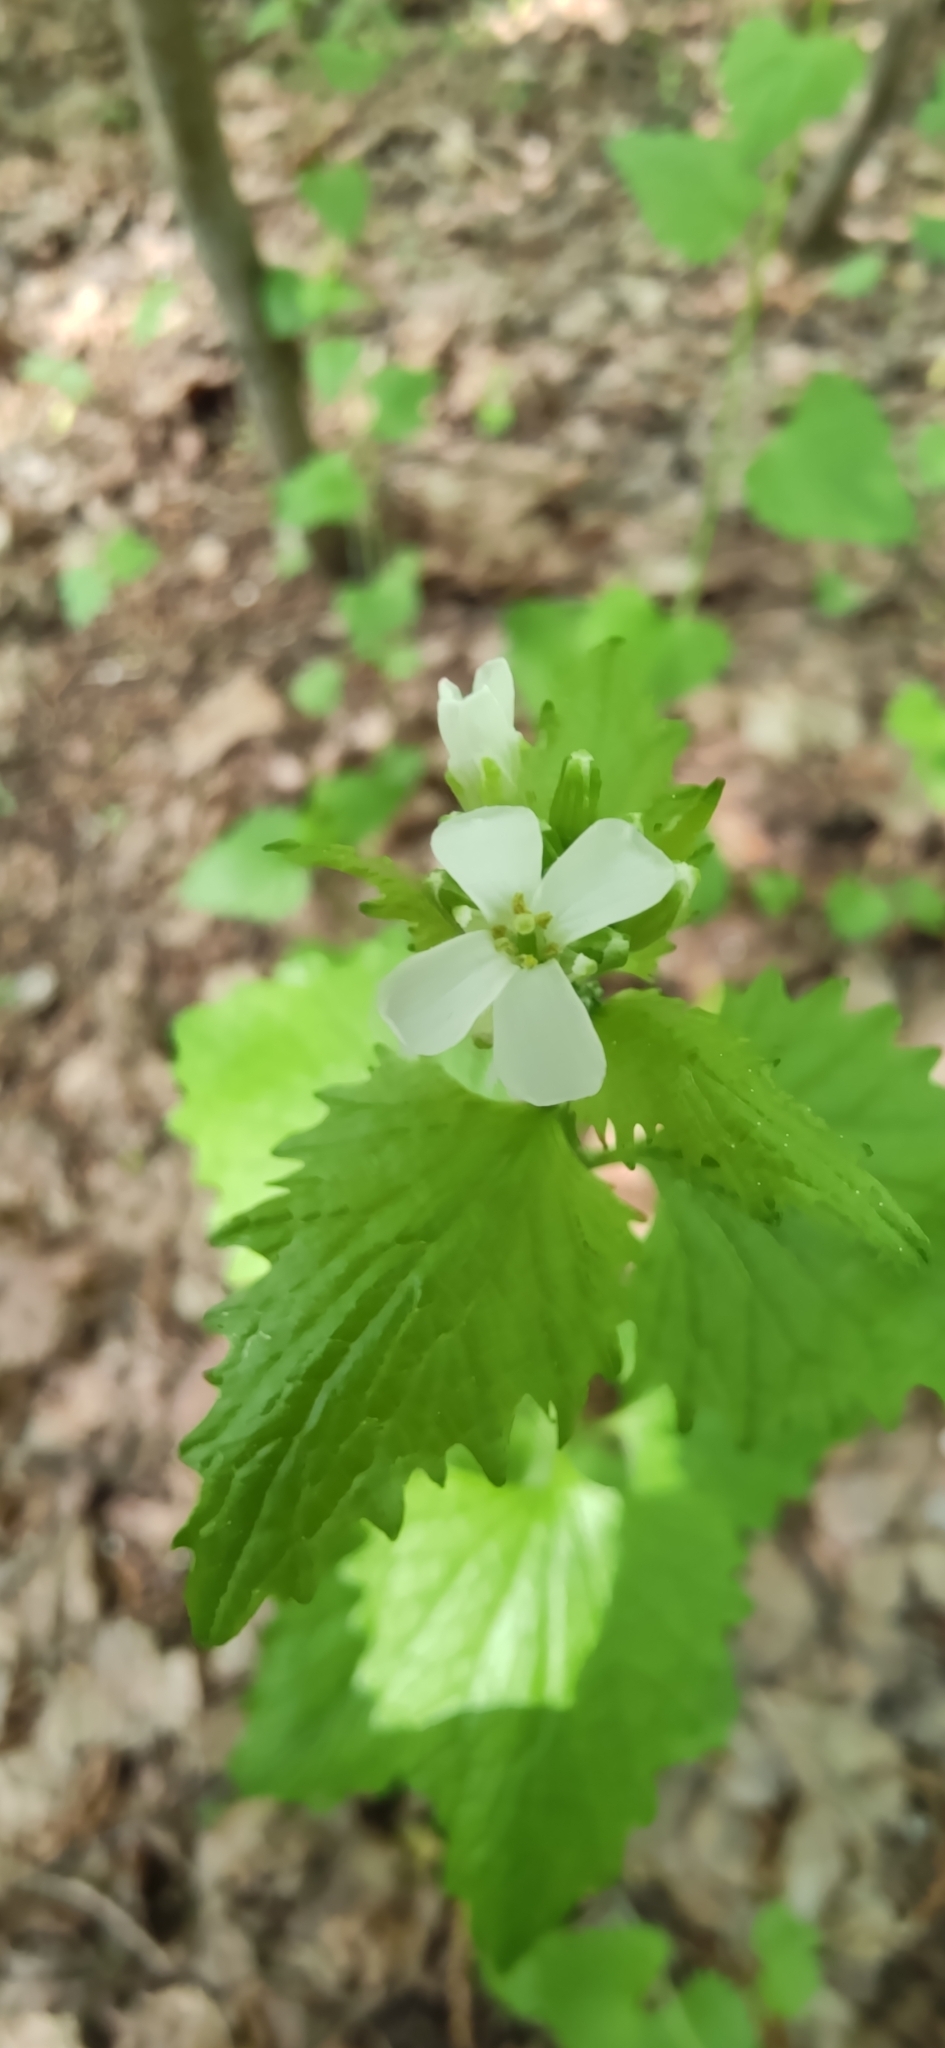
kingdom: Plantae
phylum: Tracheophyta
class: Magnoliopsida
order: Brassicales
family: Brassicaceae
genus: Alliaria
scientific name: Alliaria petiolata
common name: Garlic mustard
